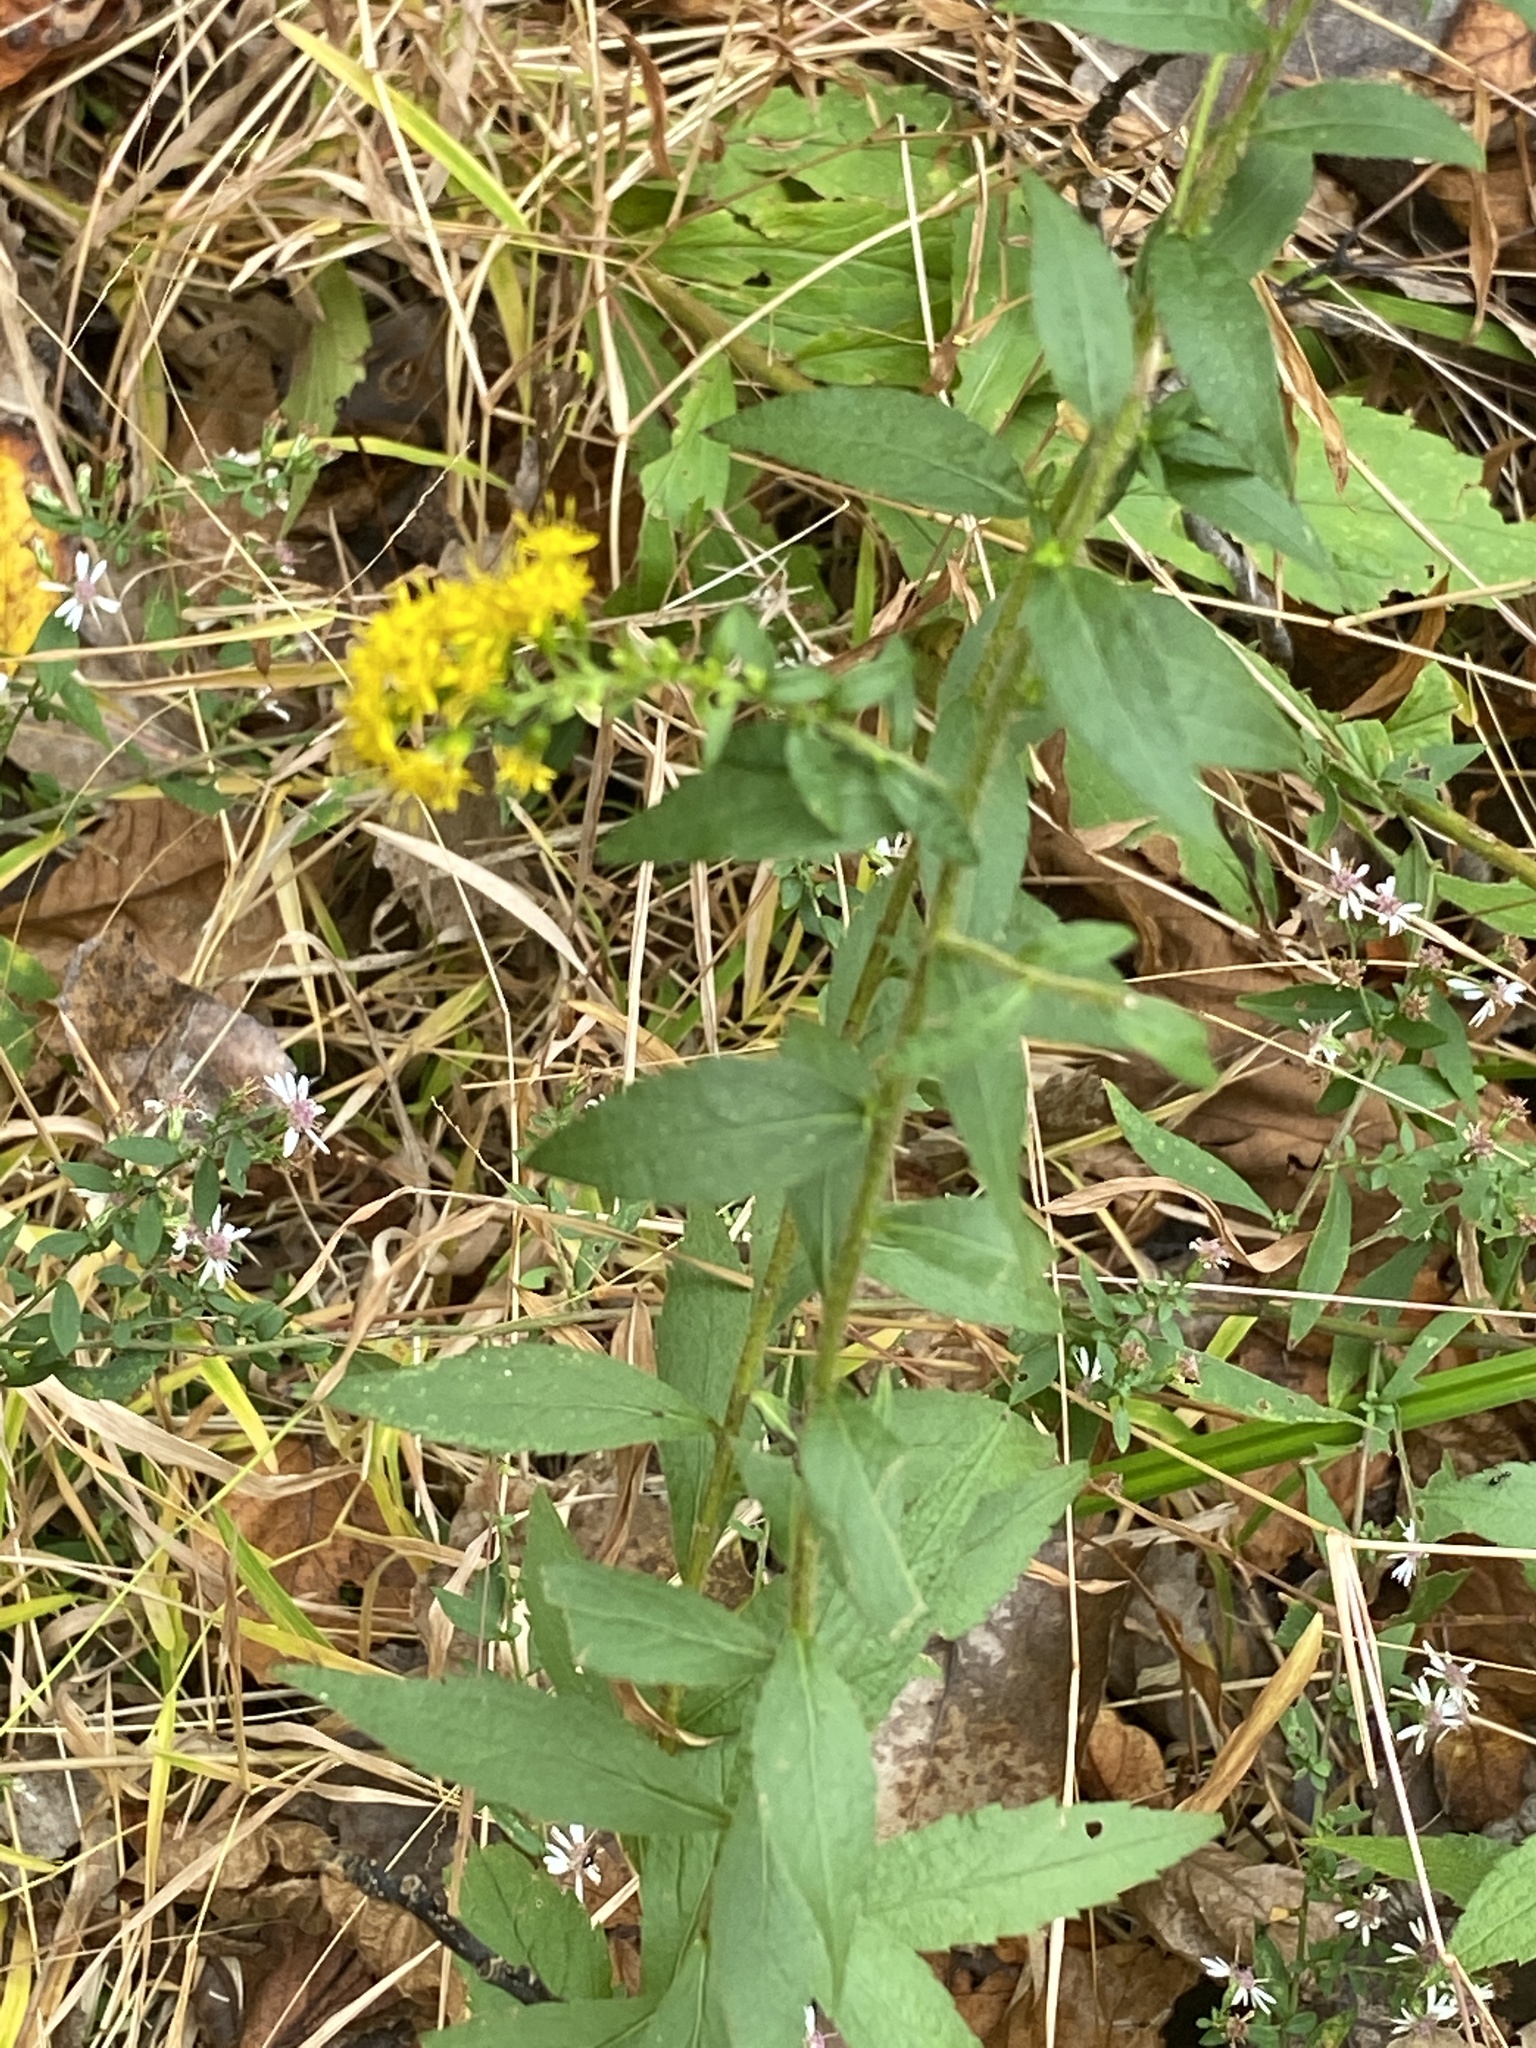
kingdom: Plantae
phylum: Tracheophyta
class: Magnoliopsida
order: Asterales
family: Asteraceae
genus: Solidago
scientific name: Solidago rugosa
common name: Rough-stemmed goldenrod
